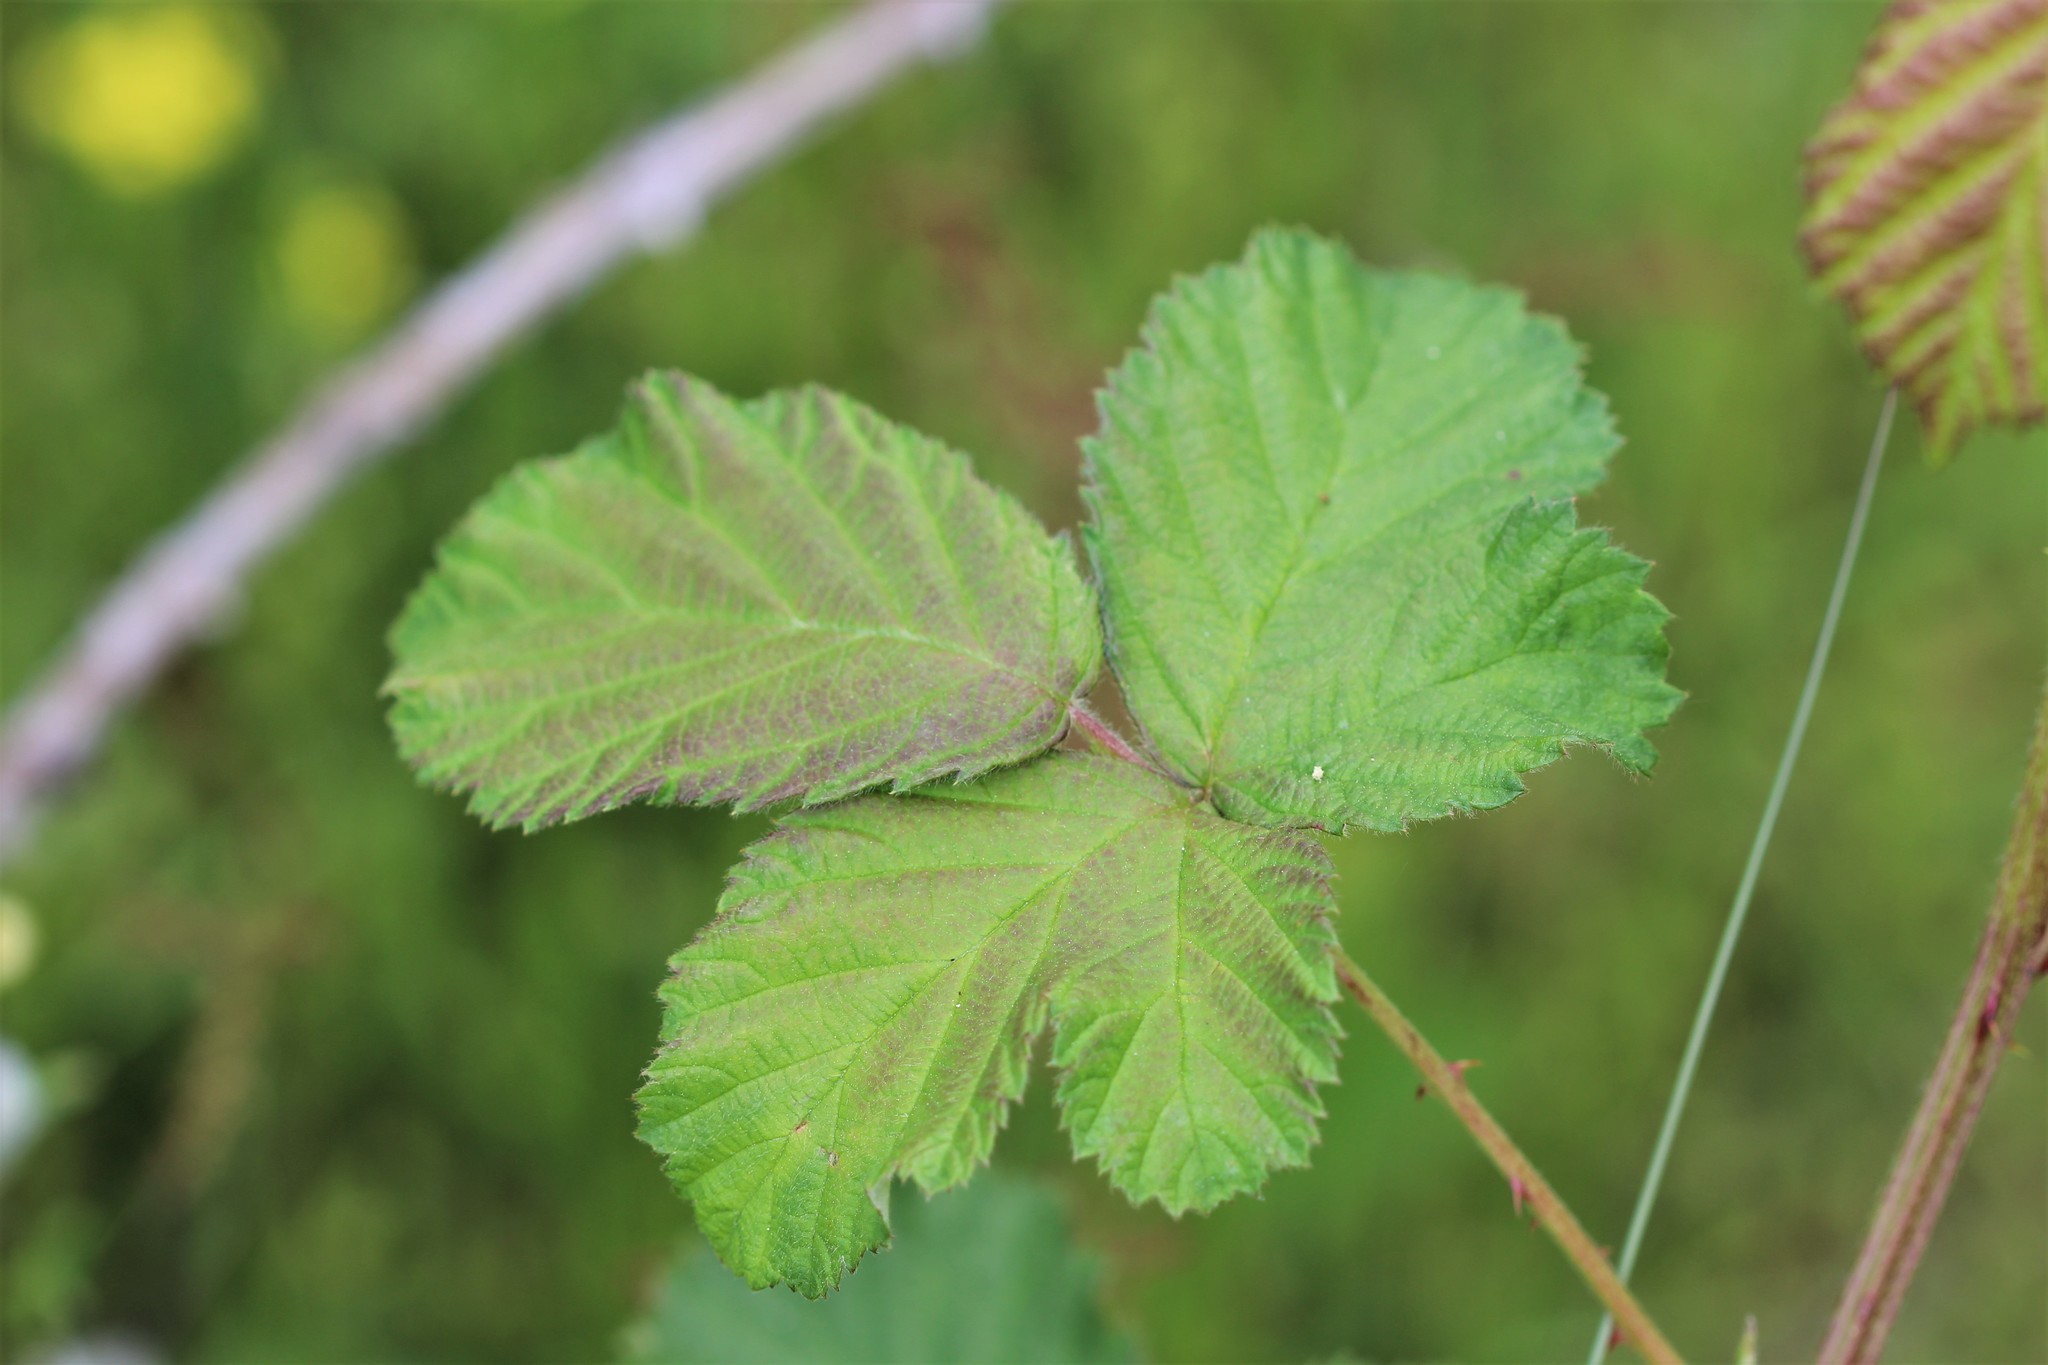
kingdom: Plantae
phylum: Tracheophyta
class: Magnoliopsida
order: Rosales
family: Rosaceae
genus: Rubus
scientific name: Rubus bifrons
